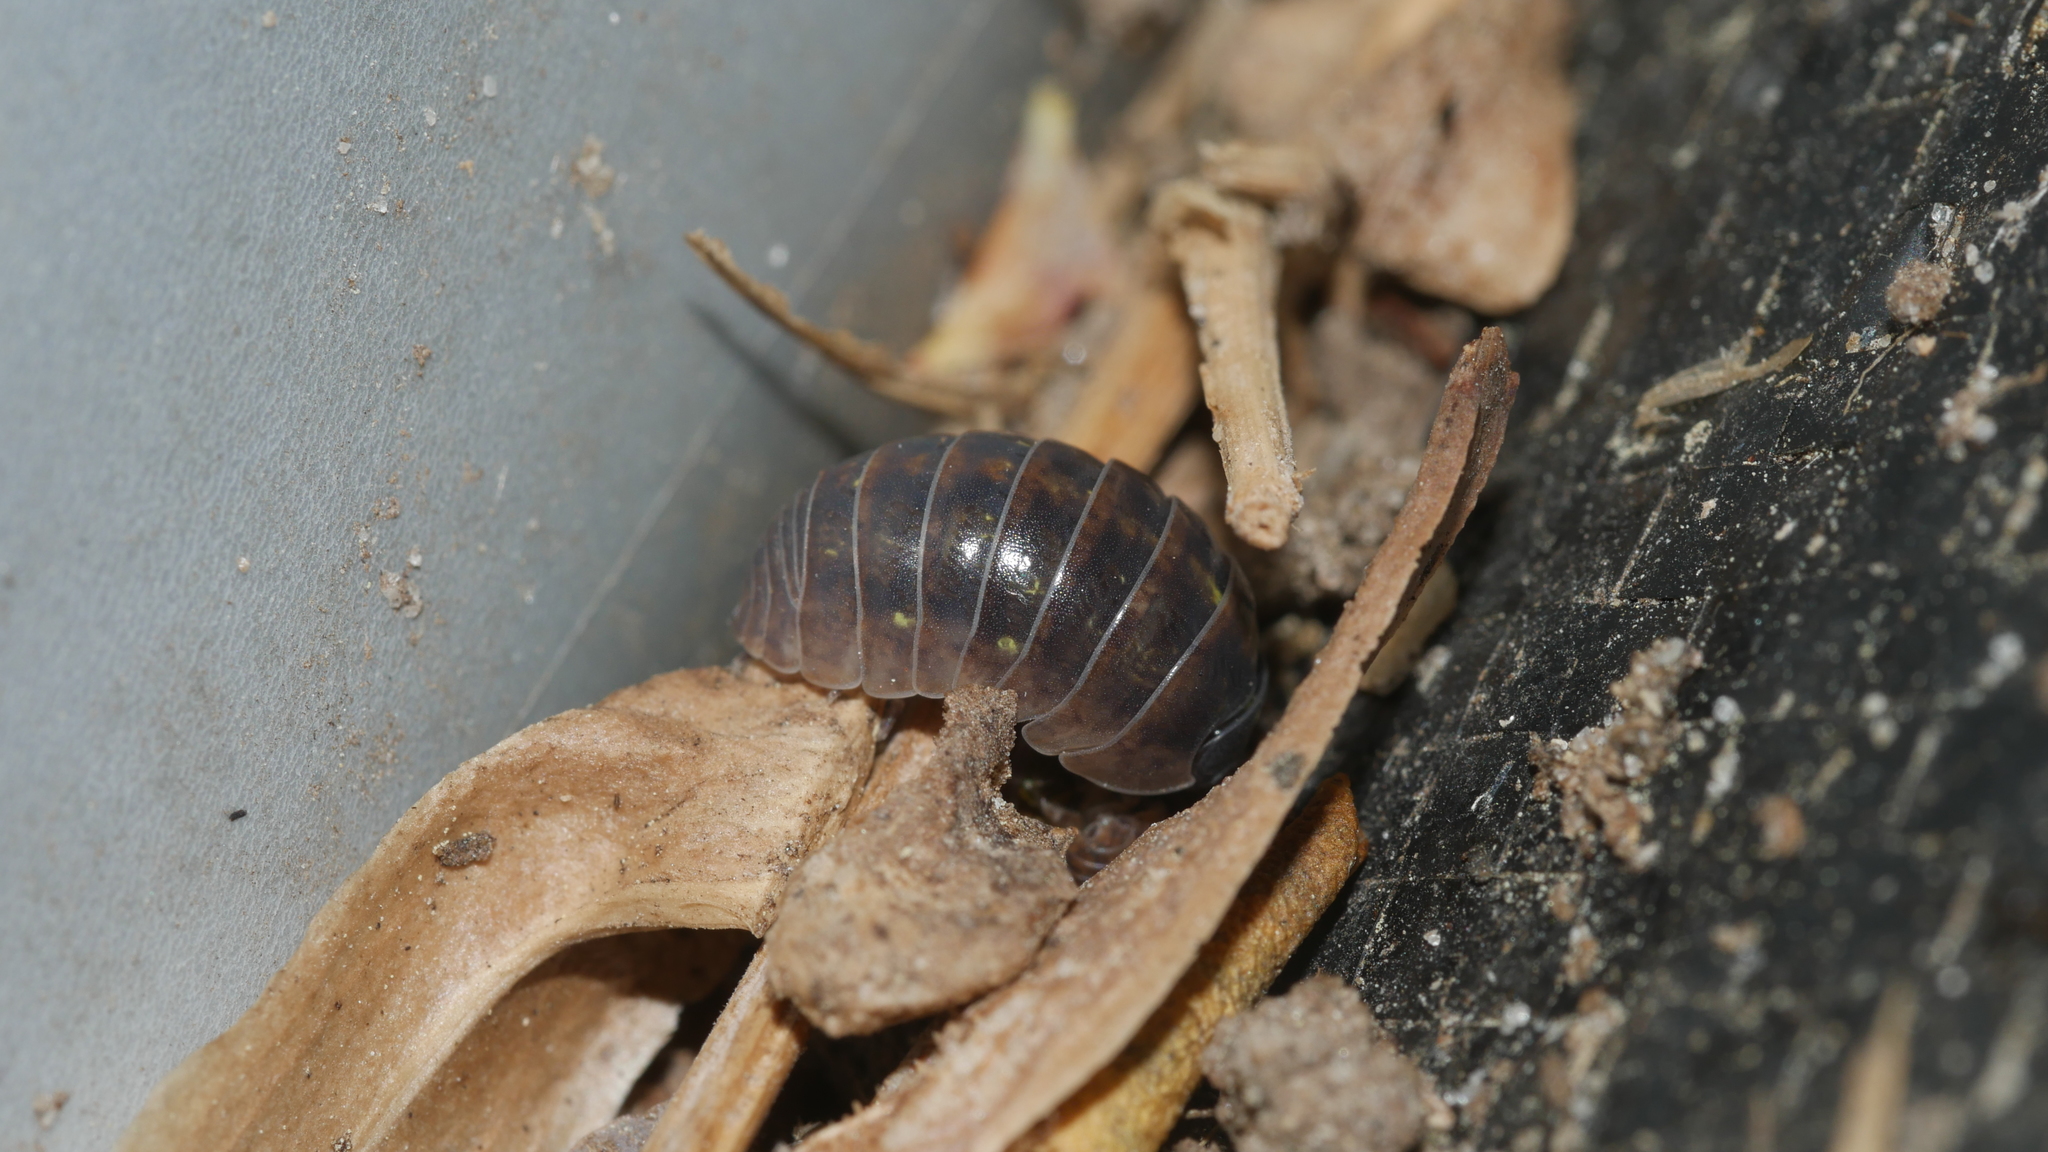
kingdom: Animalia
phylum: Arthropoda
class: Malacostraca
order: Isopoda
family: Armadillidiidae
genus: Armadillidium
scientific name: Armadillidium vulgare
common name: Common pill woodlouse
